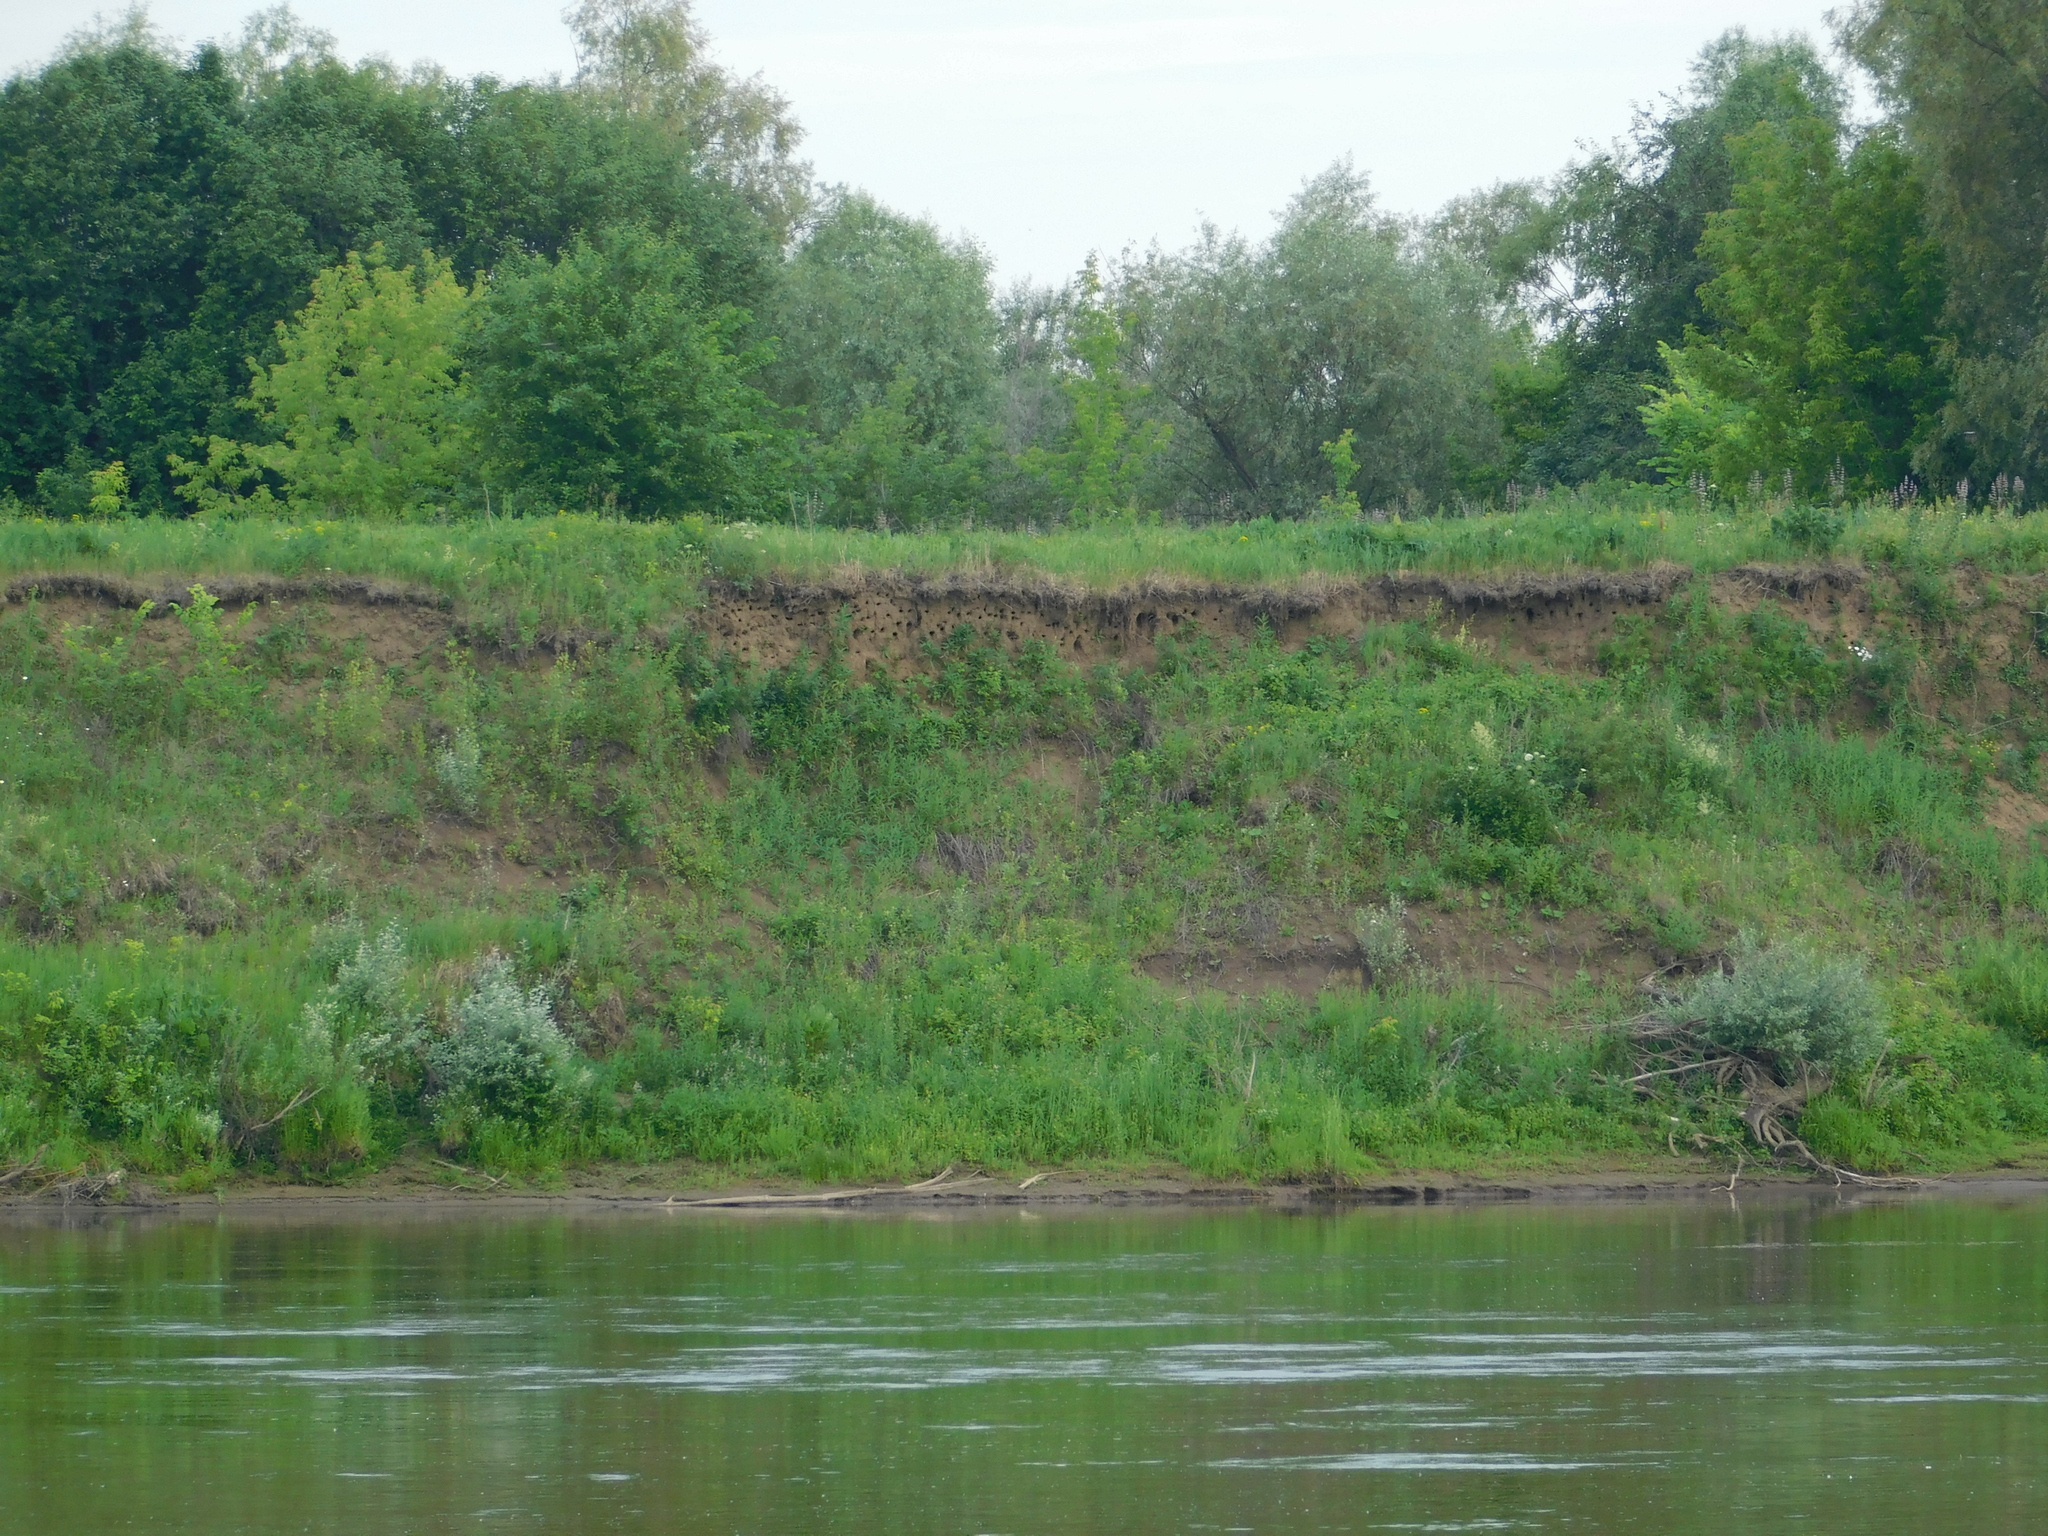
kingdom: Animalia
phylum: Chordata
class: Aves
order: Passeriformes
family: Hirundinidae
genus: Riparia
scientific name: Riparia riparia
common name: Sand martin
